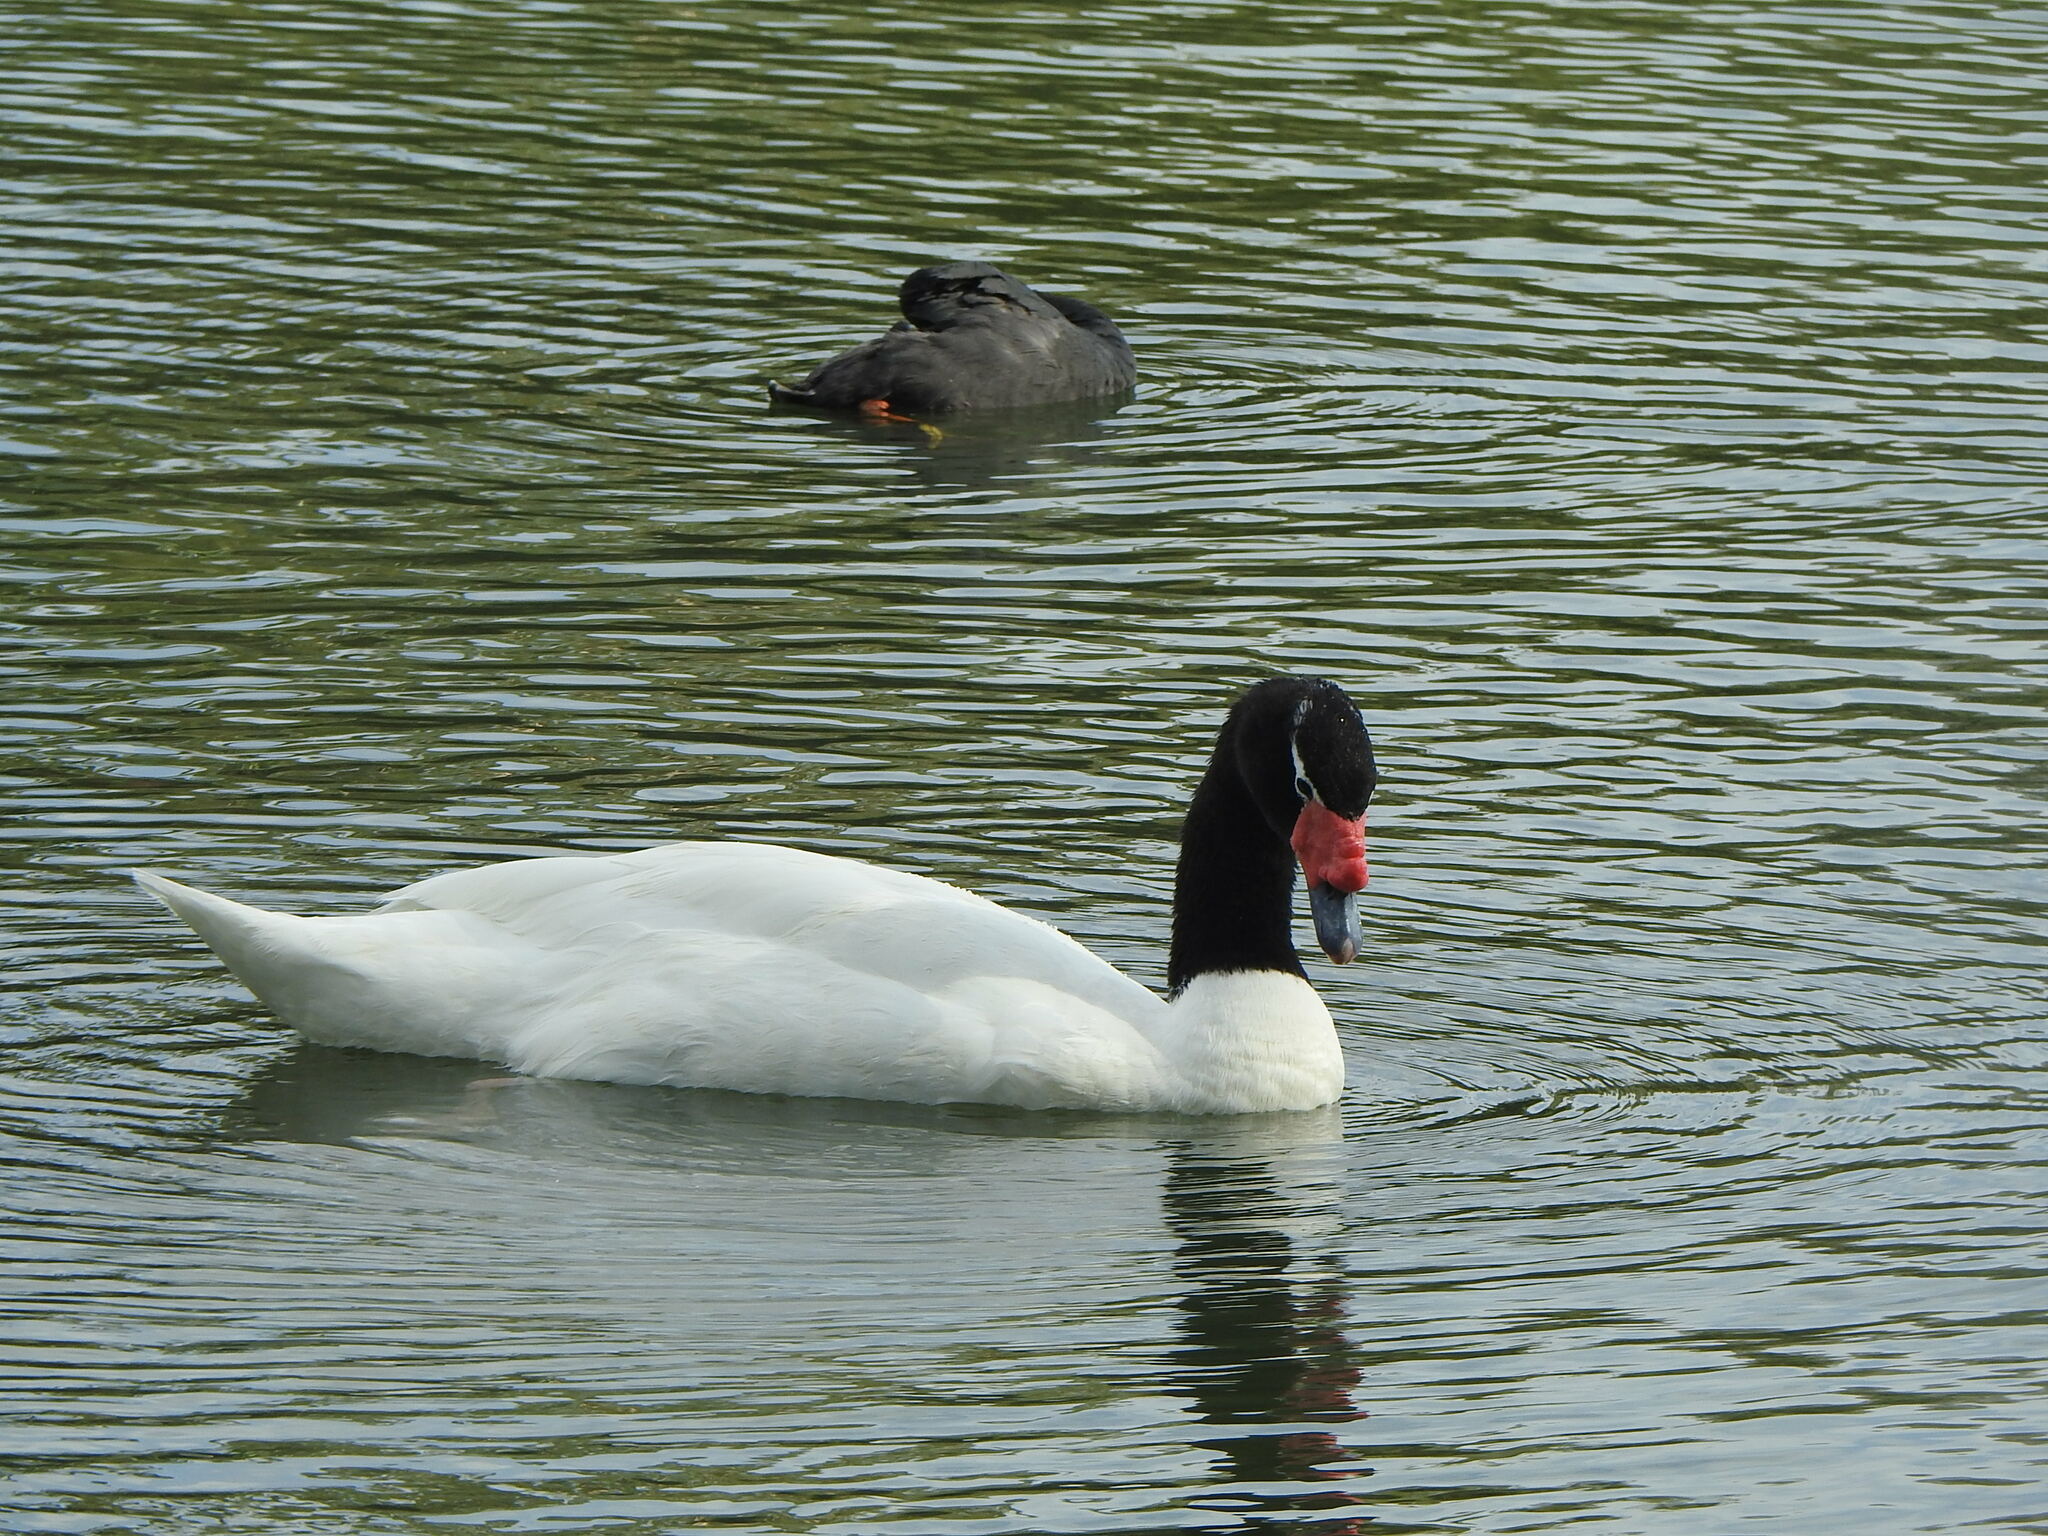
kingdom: Animalia
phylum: Chordata
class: Aves
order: Anseriformes
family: Anatidae
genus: Cygnus
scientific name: Cygnus melancoryphus
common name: Black-necked swan
